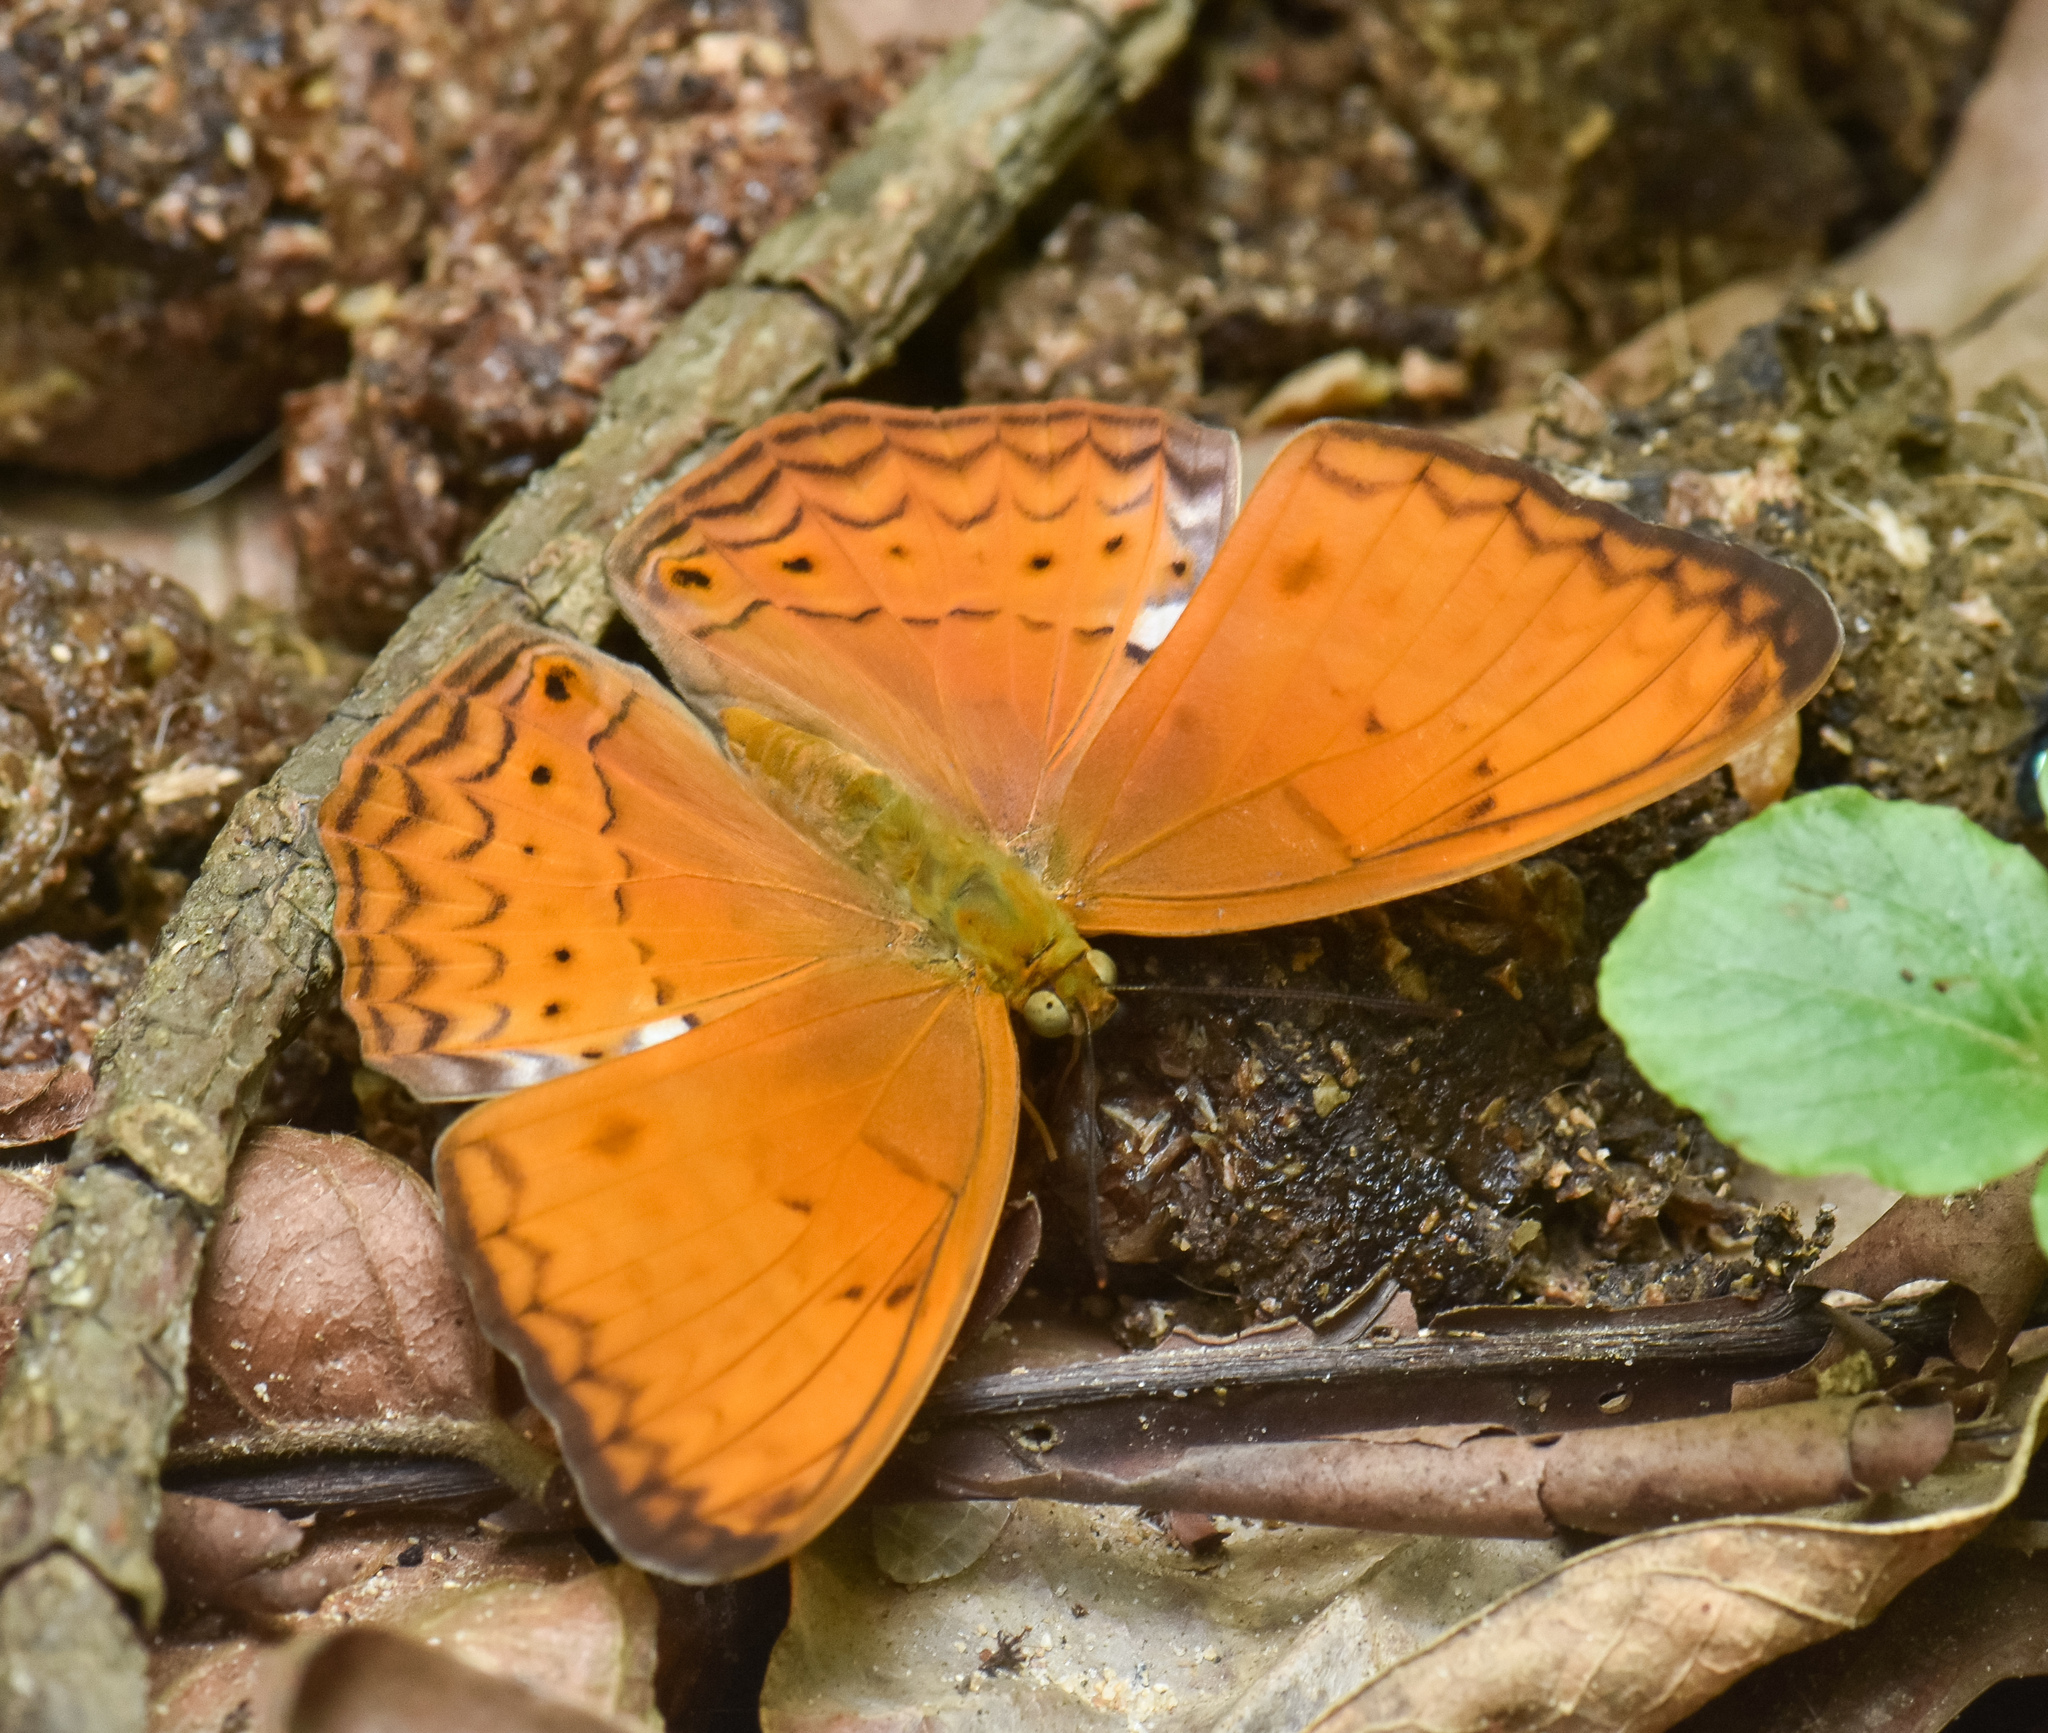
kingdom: Animalia
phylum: Arthropoda
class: Insecta
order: Lepidoptera
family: Nymphalidae
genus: Cirrochroa
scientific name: Cirrochroa tyche
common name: Common yeoman
